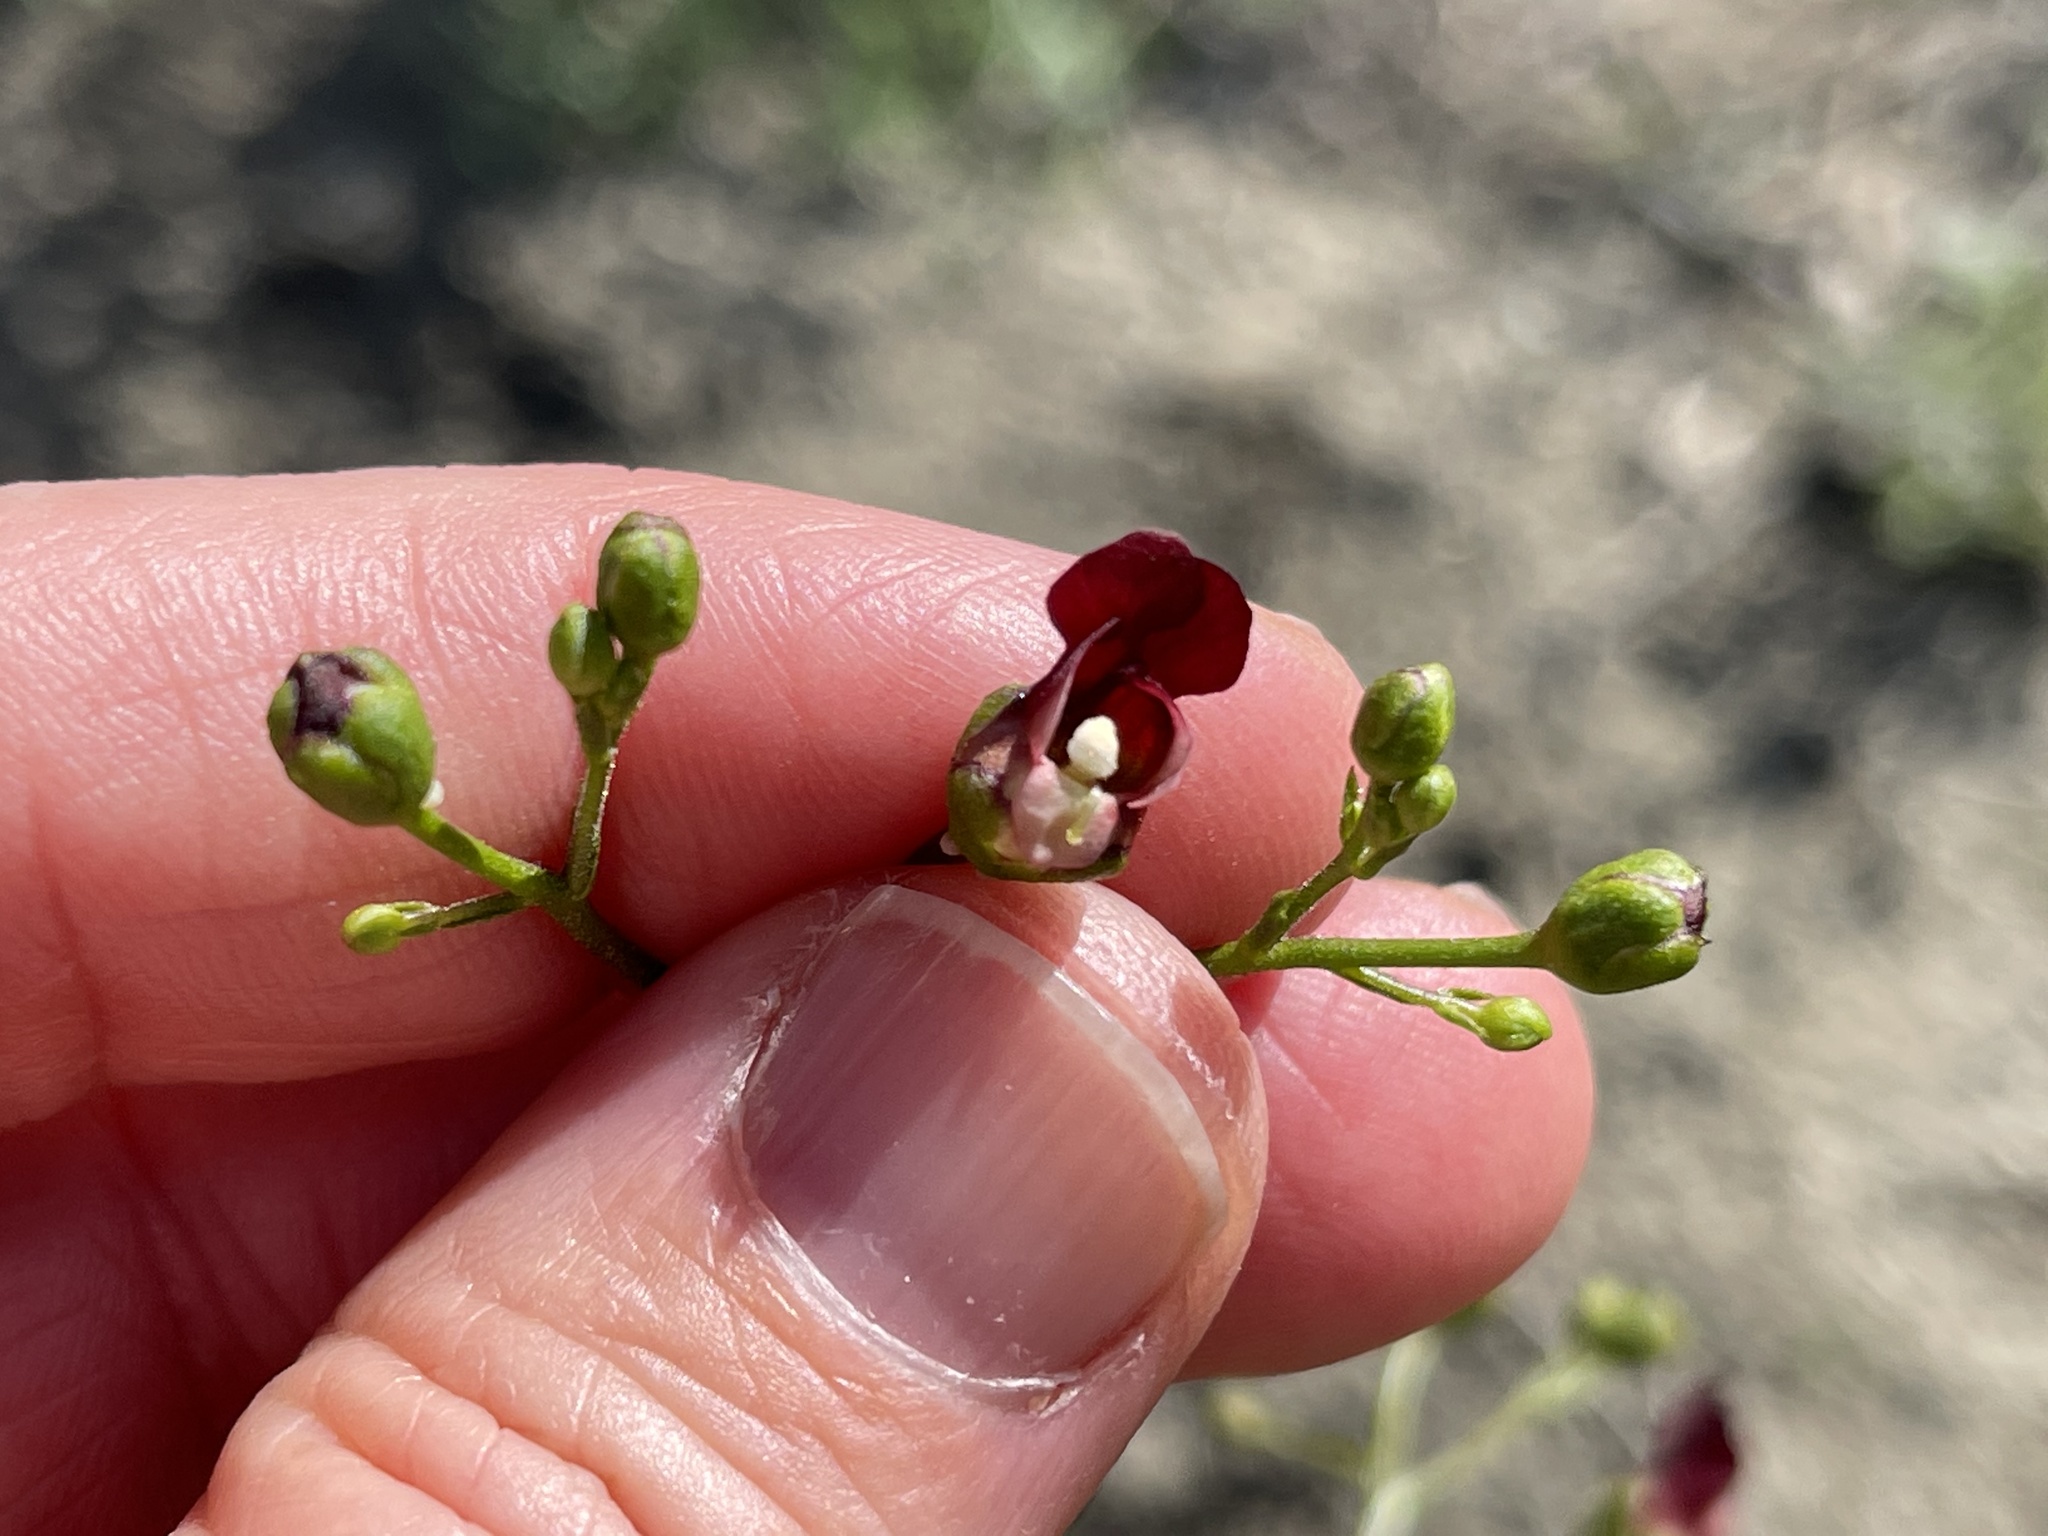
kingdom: Plantae
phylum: Tracheophyta
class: Magnoliopsida
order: Lamiales
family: Scrophulariaceae
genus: Scrophularia
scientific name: Scrophularia californica
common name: California figwort
